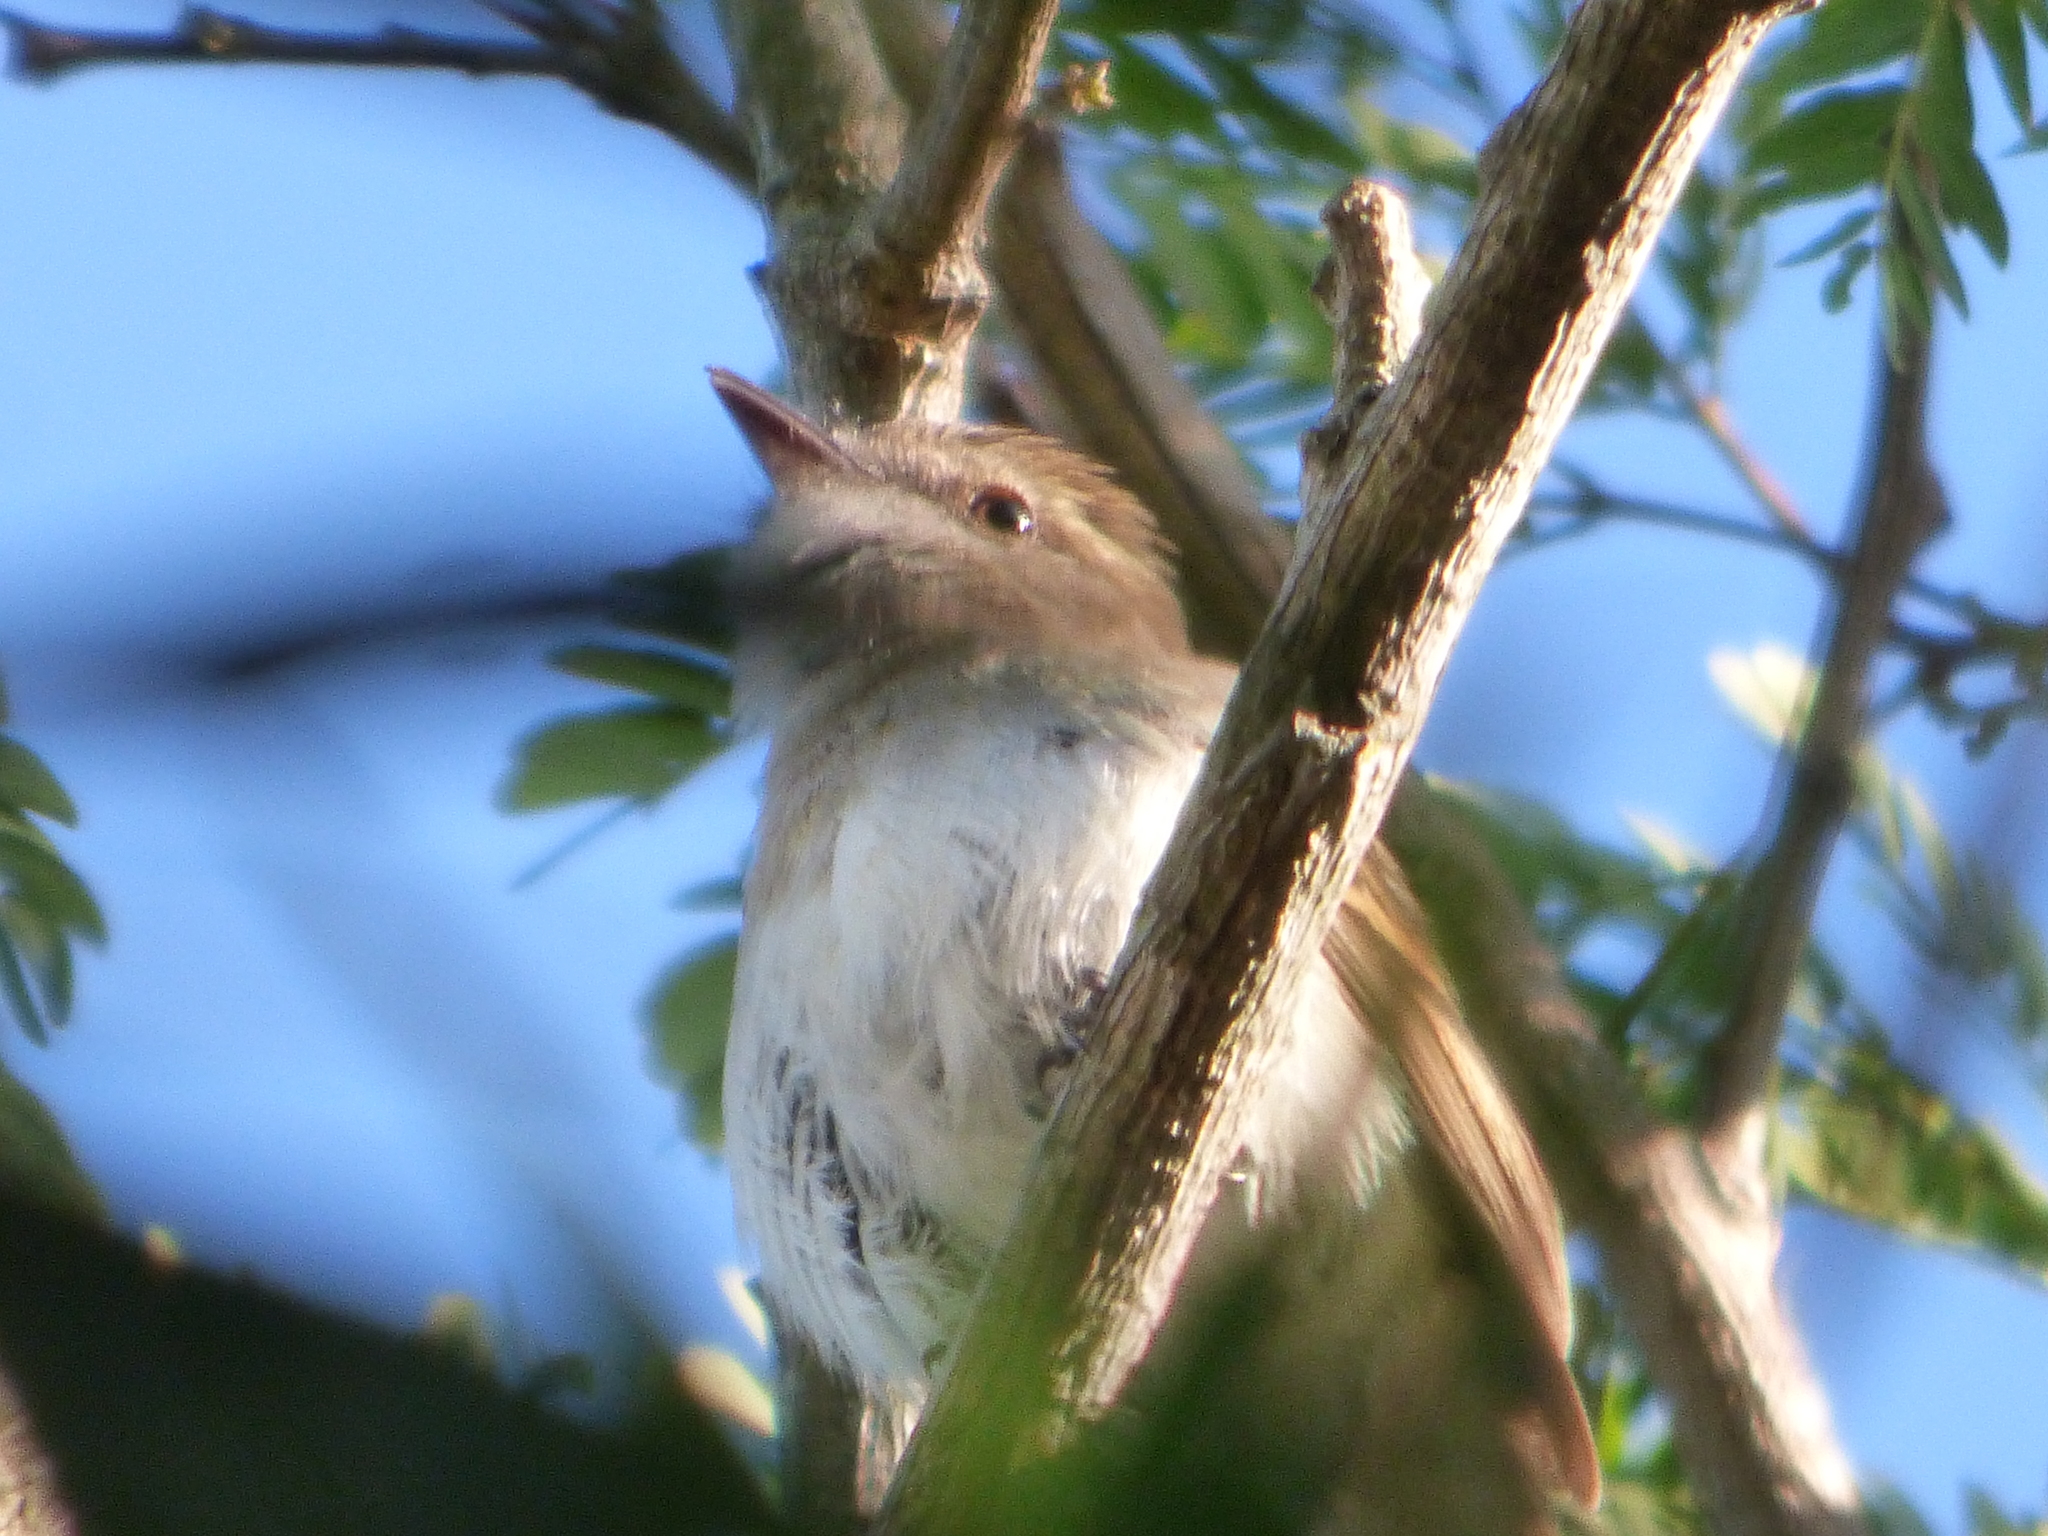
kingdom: Animalia
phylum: Chordata
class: Aves
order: Passeriformes
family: Tyrannidae
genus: Cnemotriccus
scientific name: Cnemotriccus fuscatus
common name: Fuscous flycatcher
